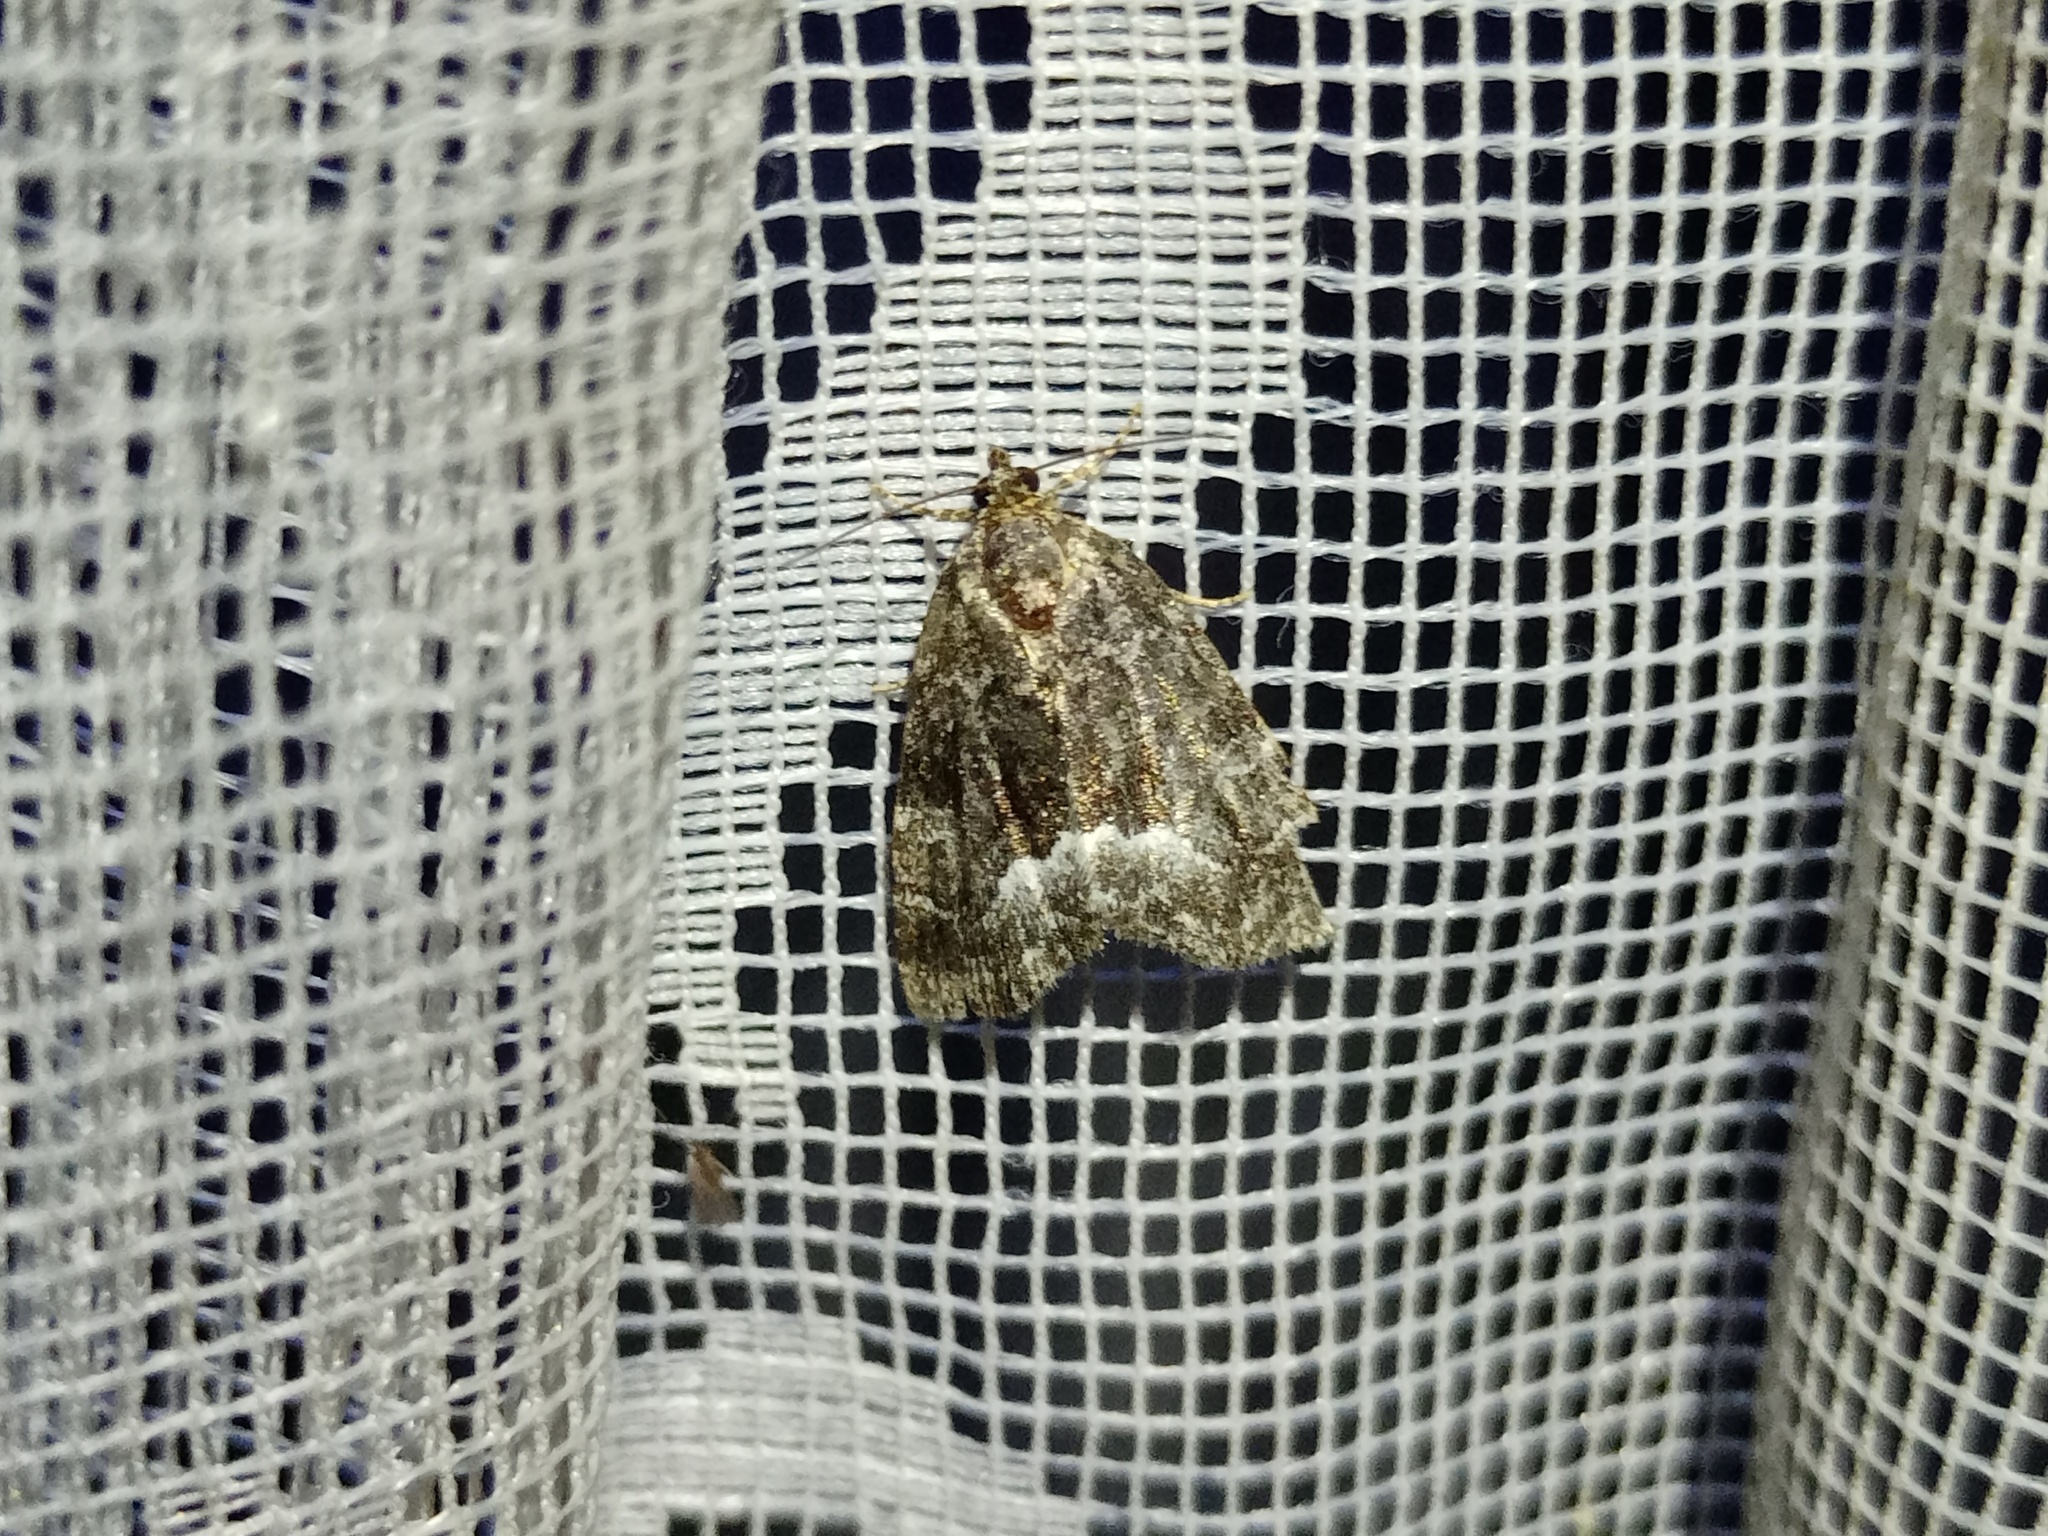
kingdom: Animalia
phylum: Arthropoda
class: Insecta
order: Lepidoptera
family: Noctuidae
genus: Deltote
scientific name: Deltote pygarga
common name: Marbled white spot
